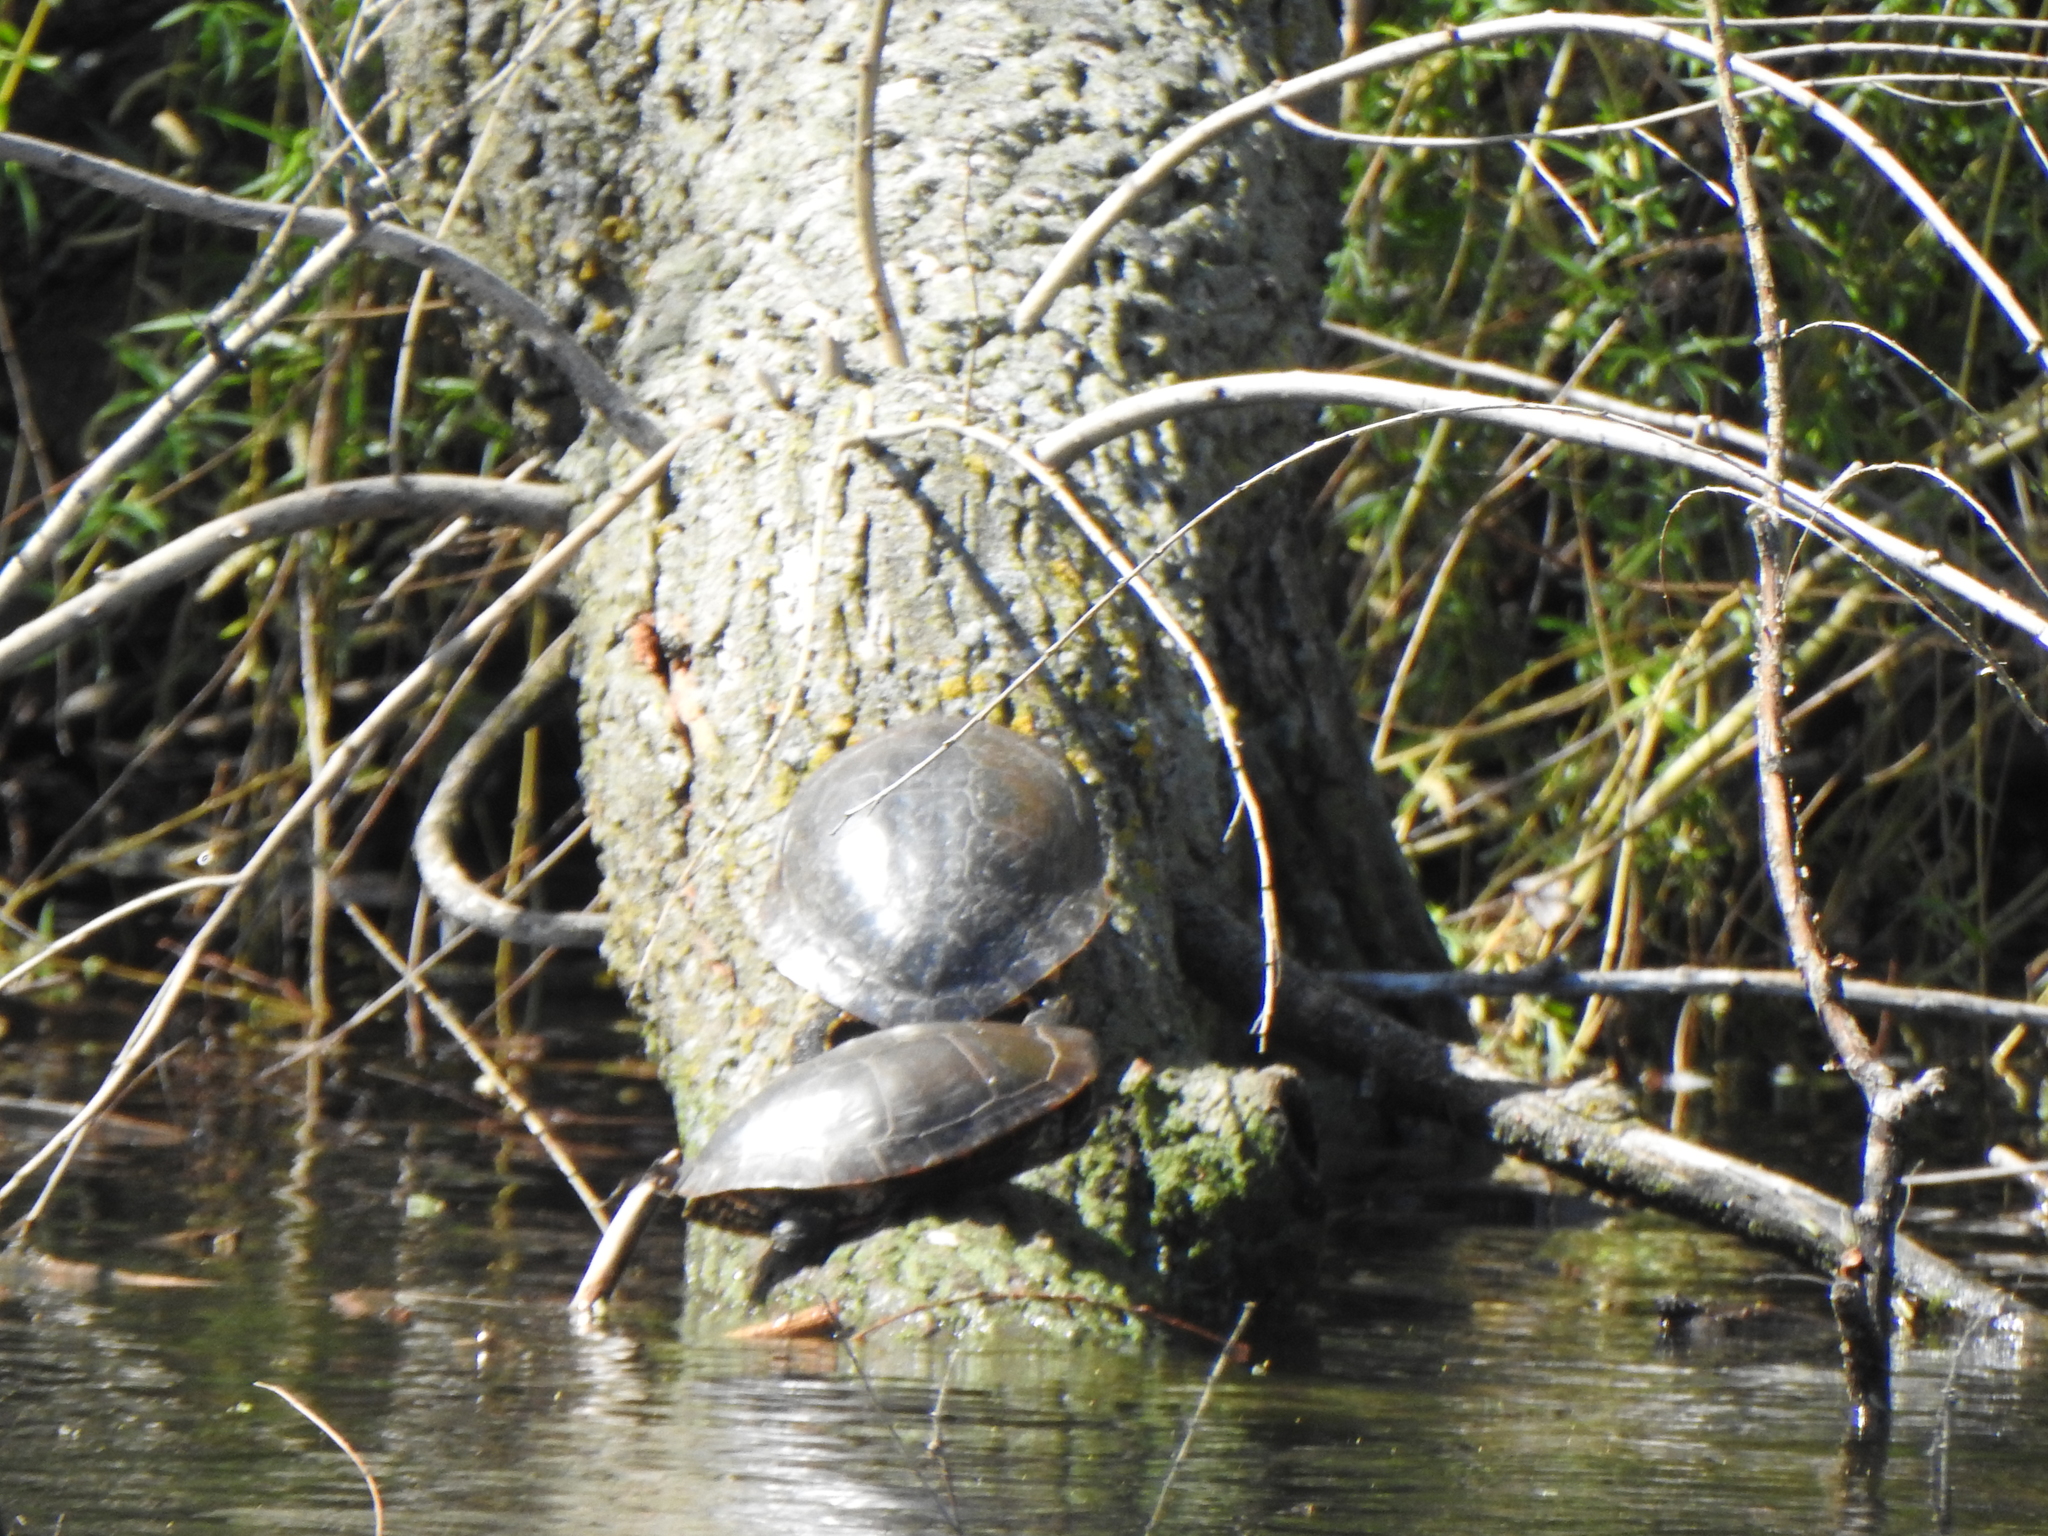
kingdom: Animalia
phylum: Chordata
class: Testudines
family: Emydidae
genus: Chrysemys
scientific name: Chrysemys picta
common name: Painted turtle
